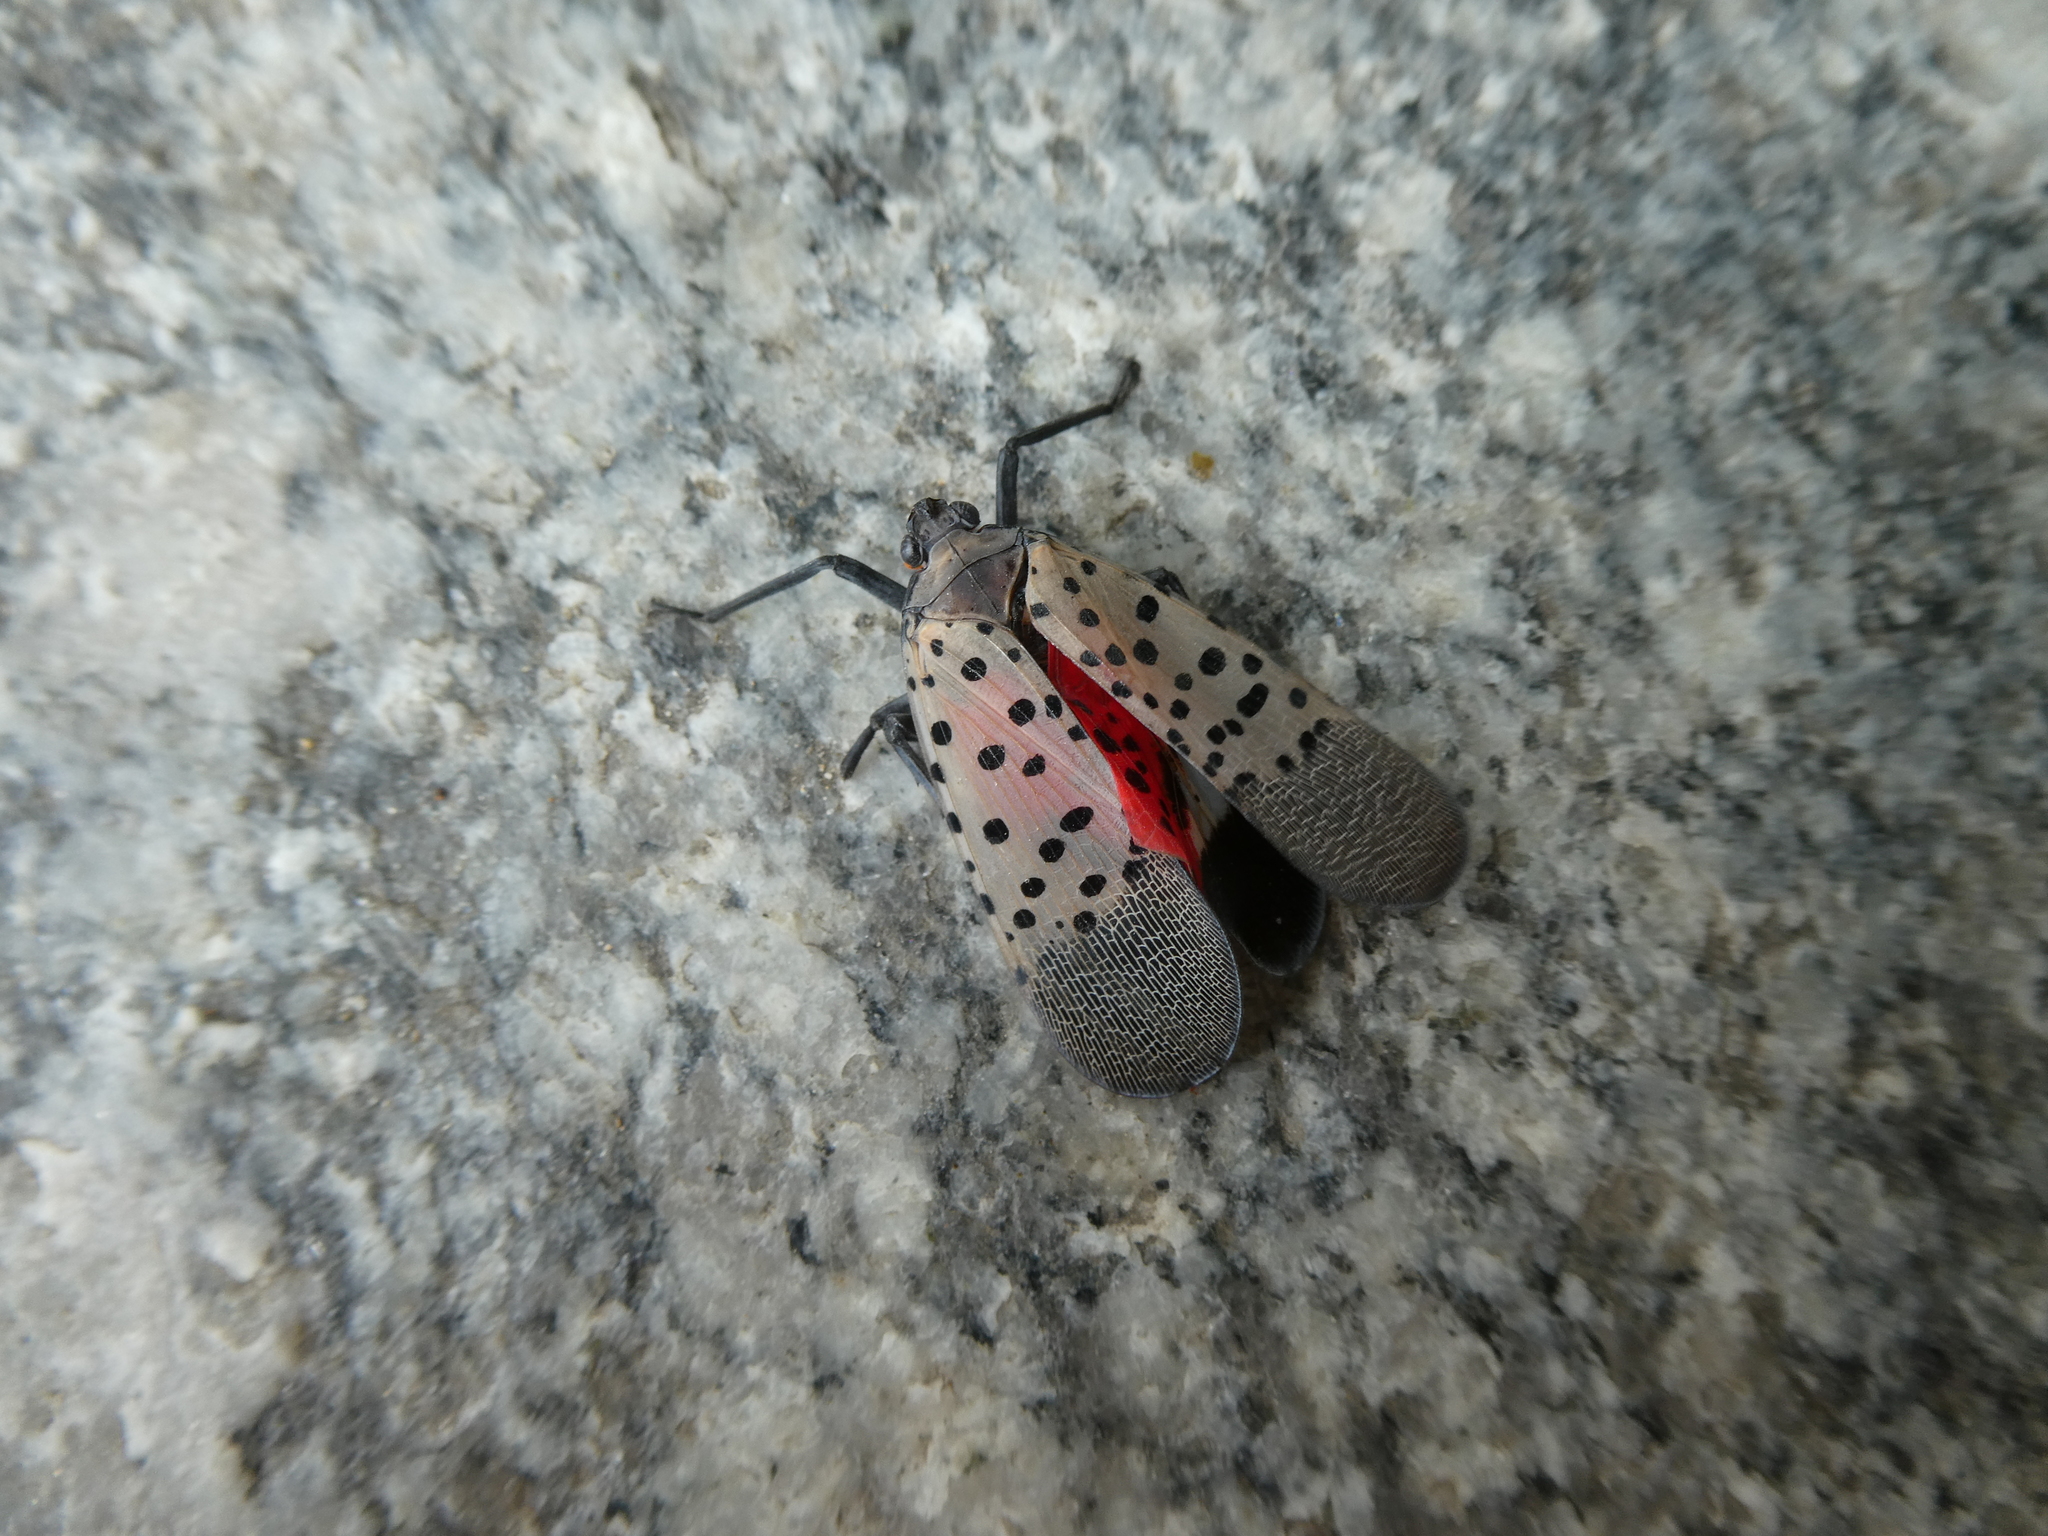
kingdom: Animalia
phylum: Arthropoda
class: Insecta
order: Hemiptera
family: Fulgoridae
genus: Lycorma
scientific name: Lycorma delicatula
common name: Spotted lanternfly
